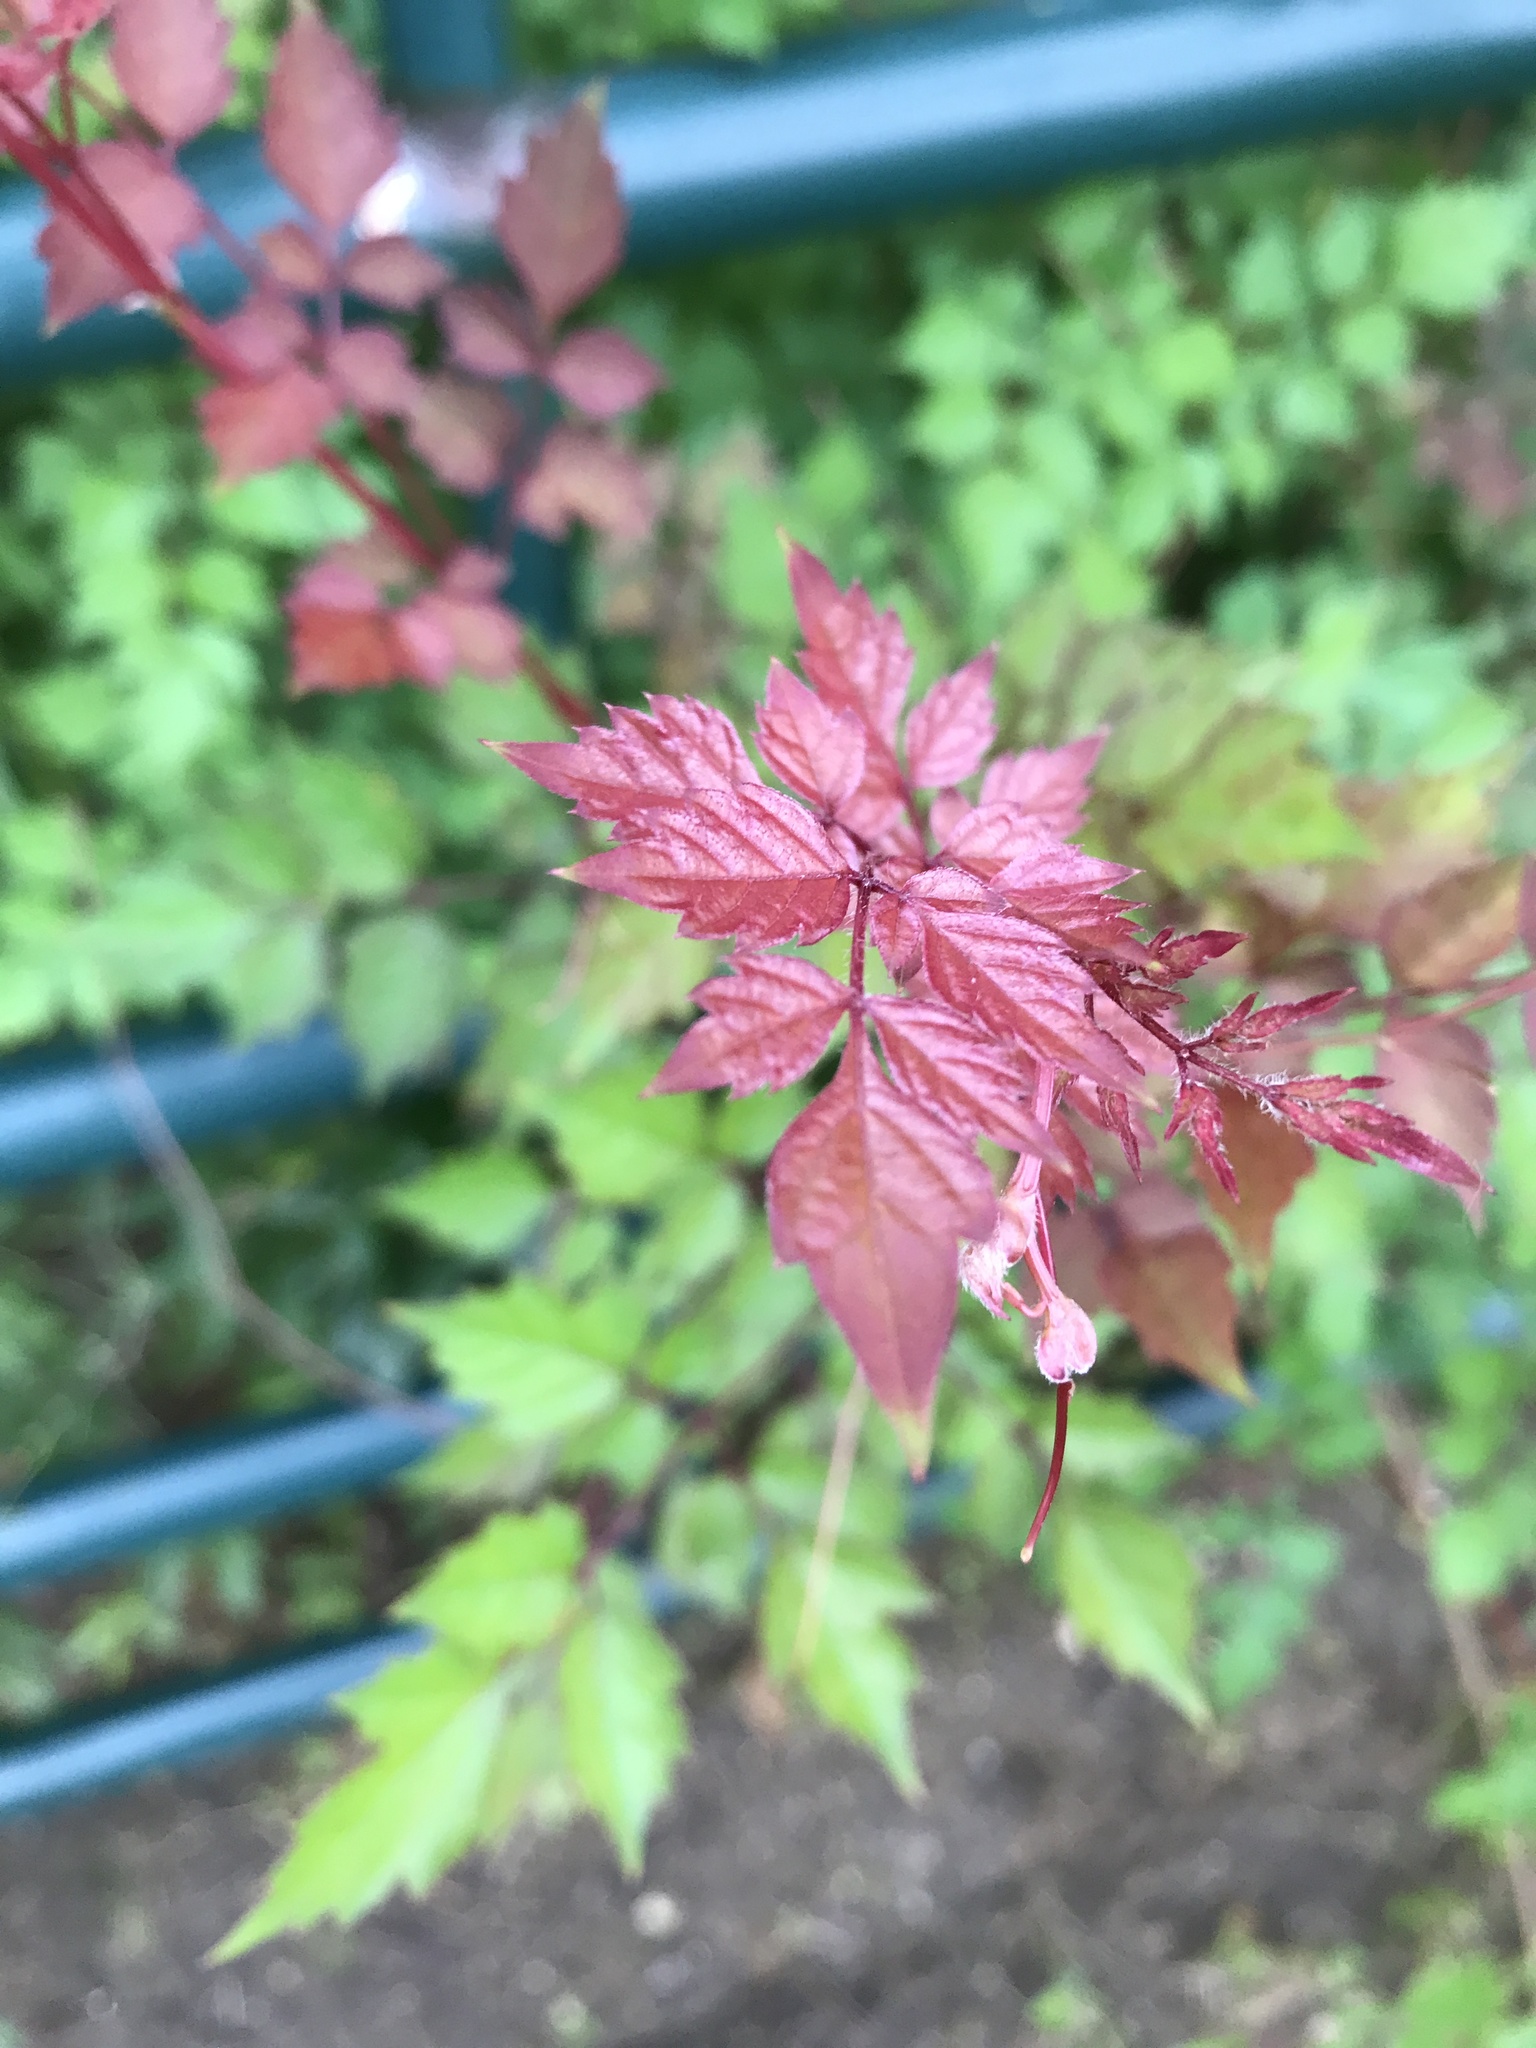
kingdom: Plantae
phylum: Tracheophyta
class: Magnoliopsida
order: Vitales
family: Vitaceae
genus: Nekemias
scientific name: Nekemias arborea
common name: Peppervine
